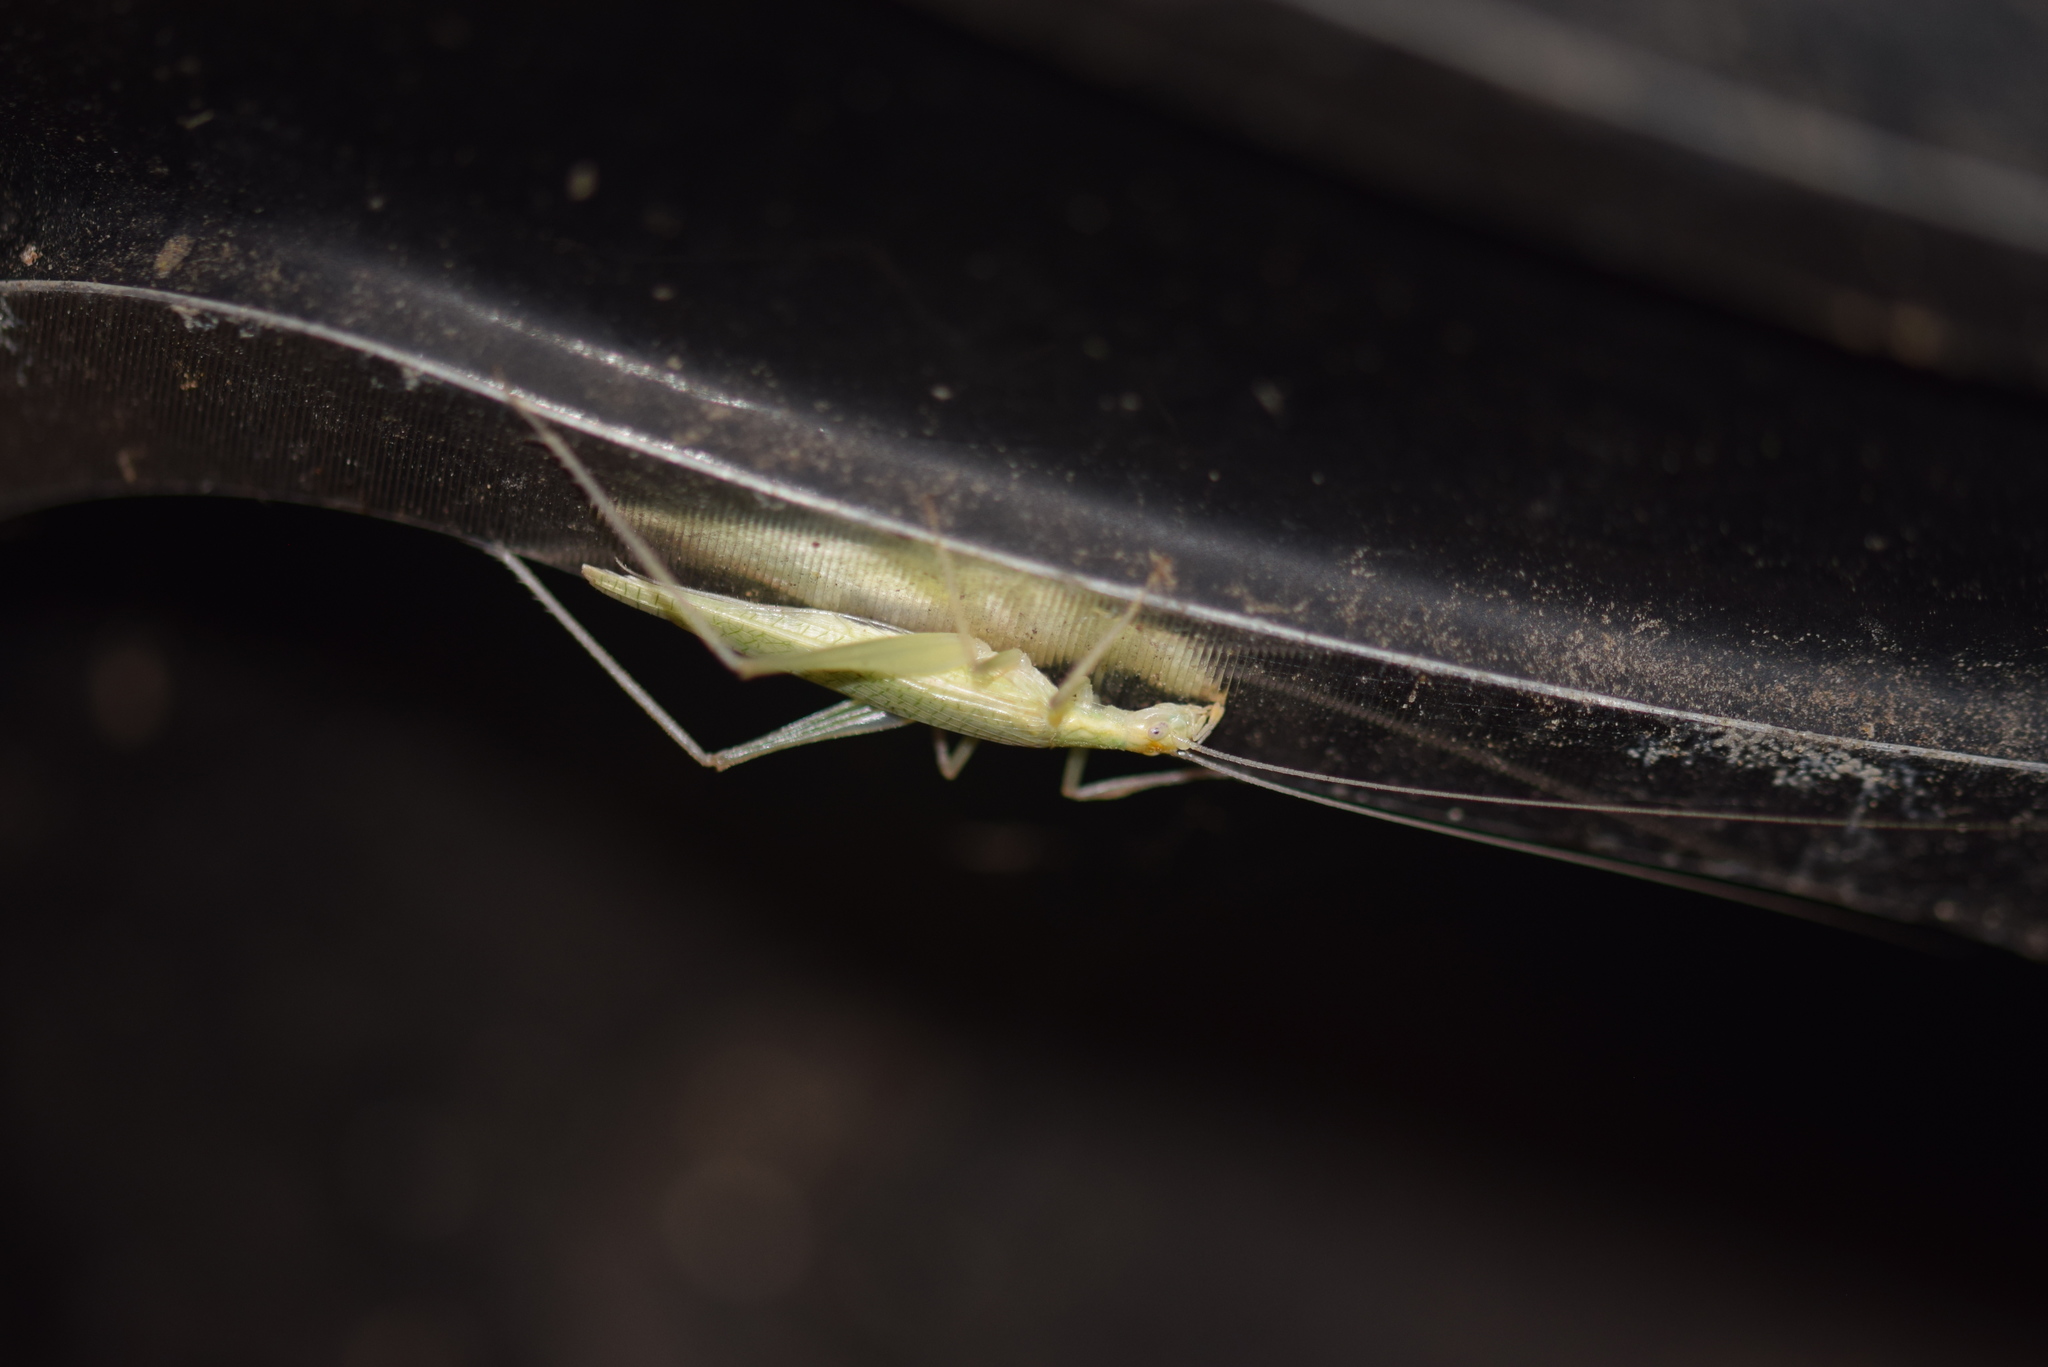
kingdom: Animalia
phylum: Arthropoda
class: Insecta
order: Orthoptera
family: Gryllidae
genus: Oecanthus
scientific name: Oecanthus niveus
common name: Narrow-winged tree cricket
